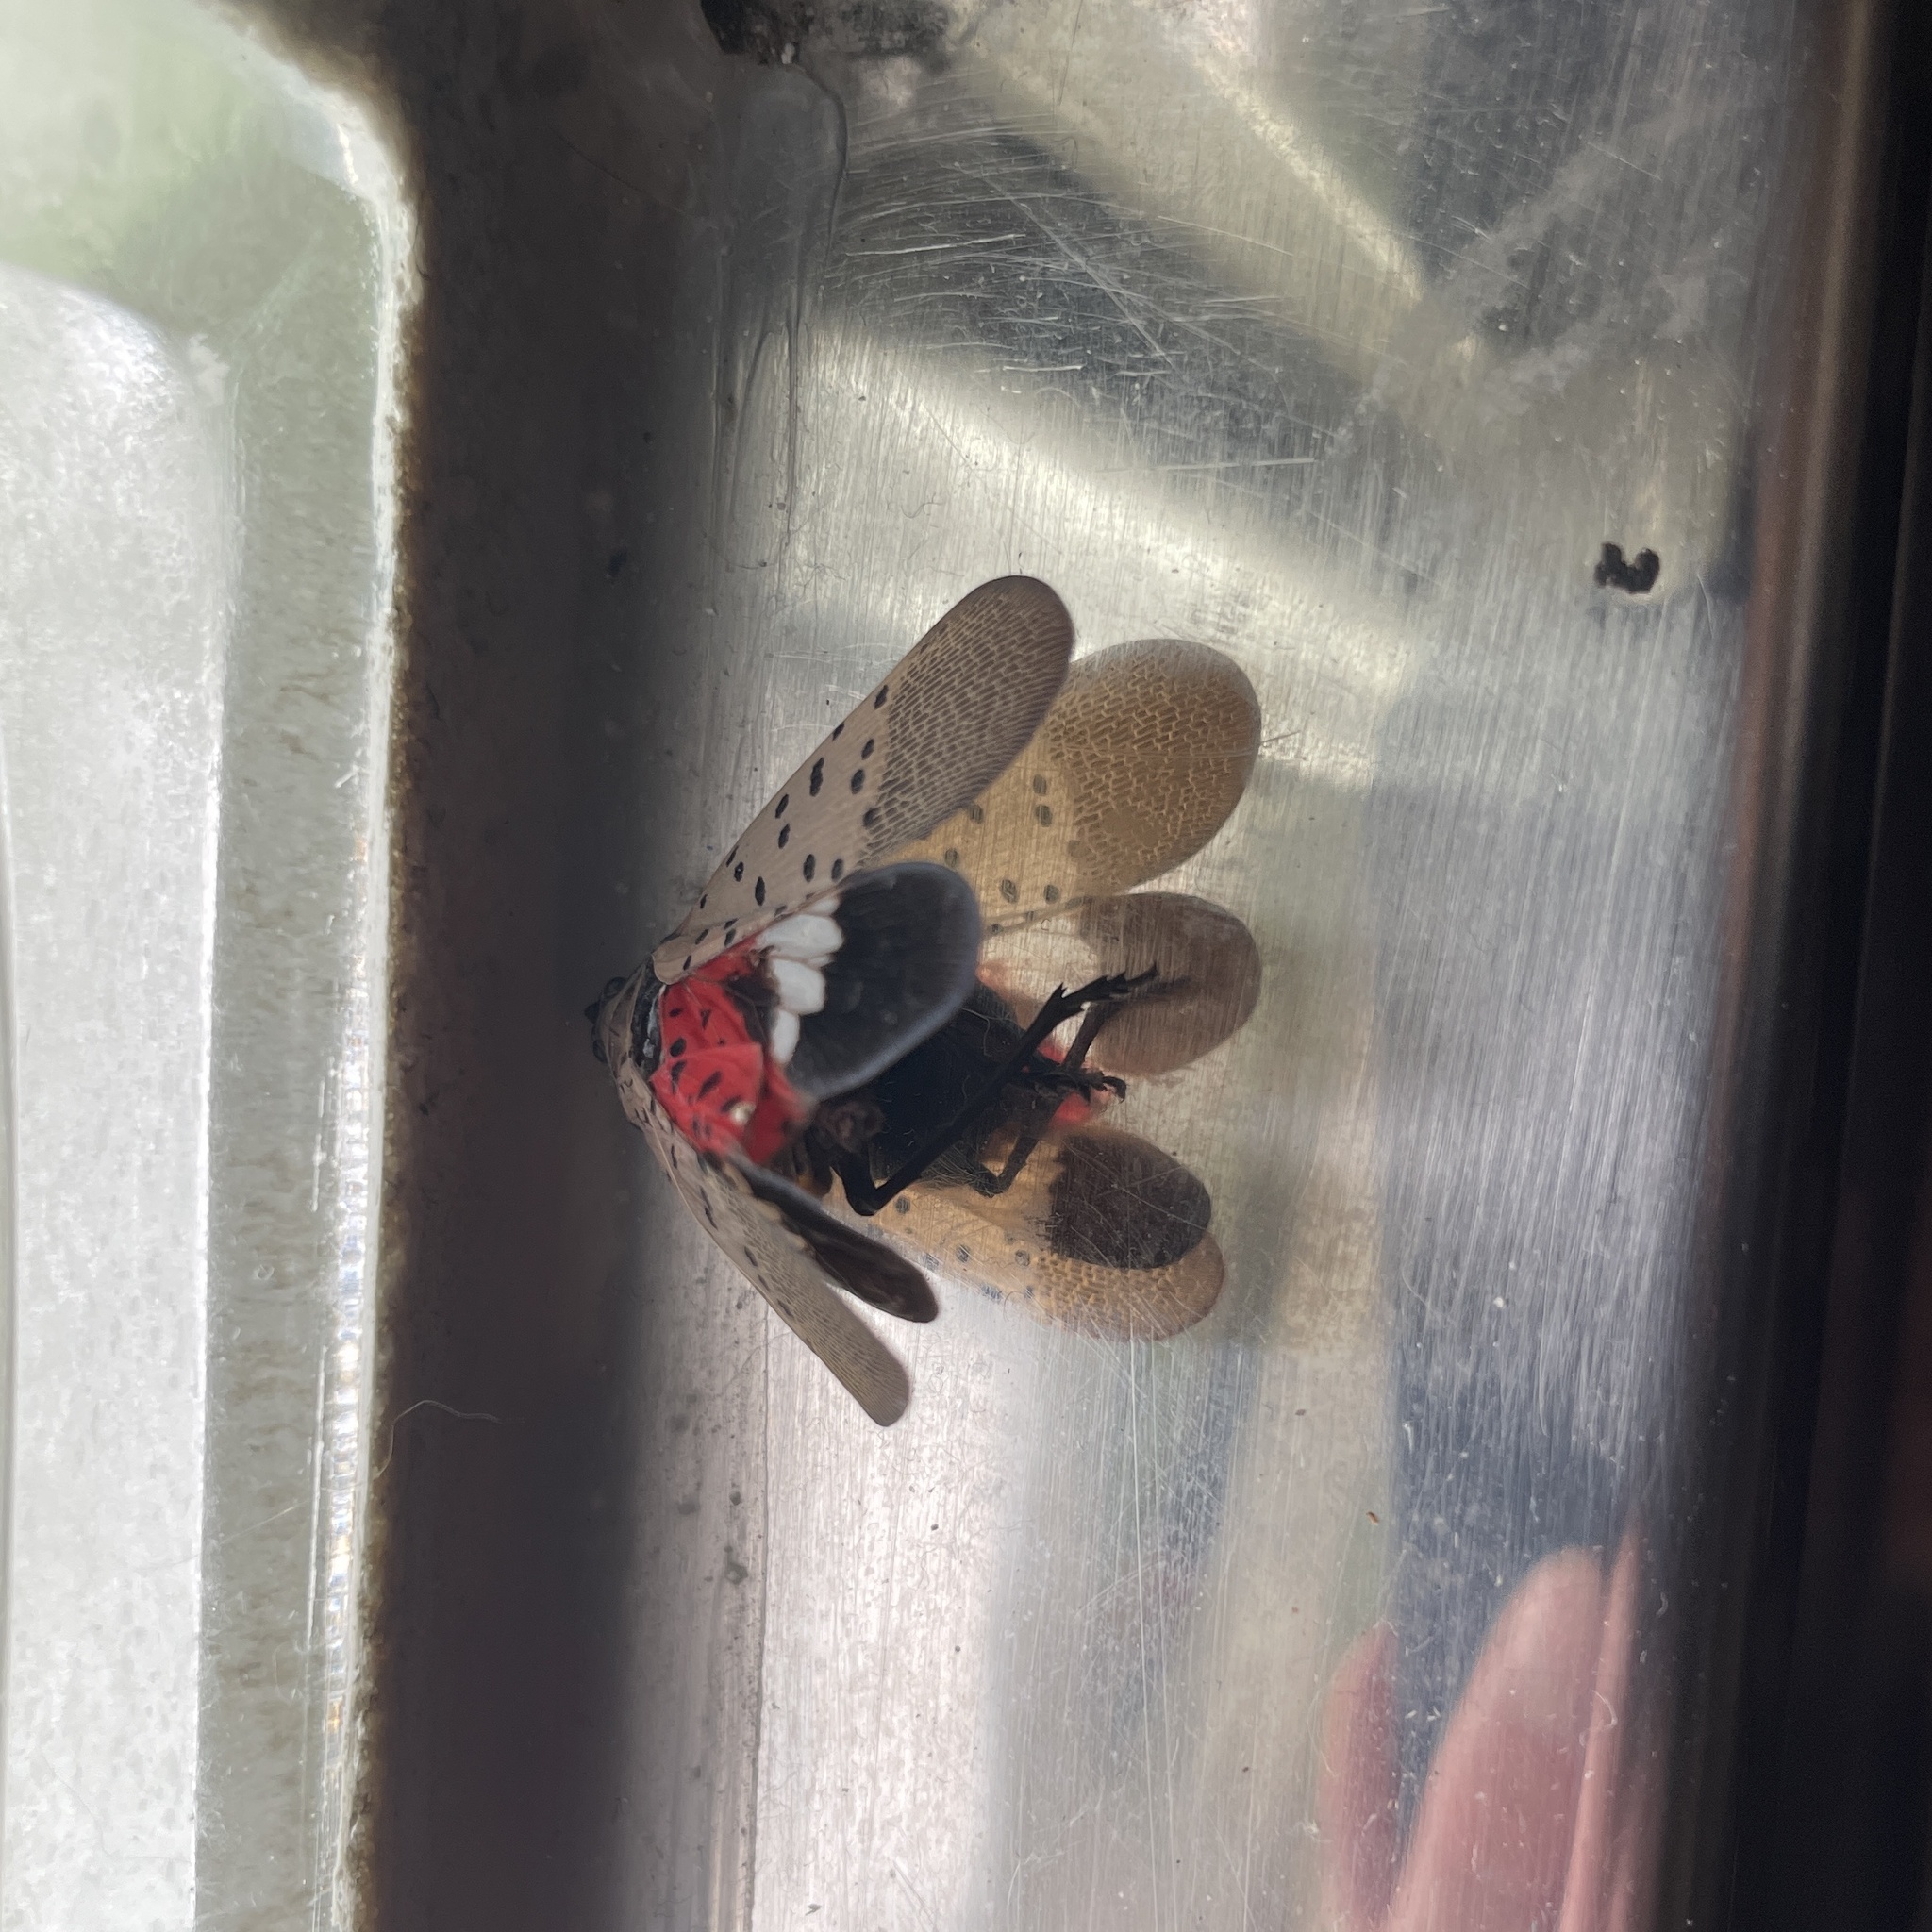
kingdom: Animalia
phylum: Arthropoda
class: Insecta
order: Hemiptera
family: Fulgoridae
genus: Lycorma
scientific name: Lycorma delicatula
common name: Spotted lanternfly
